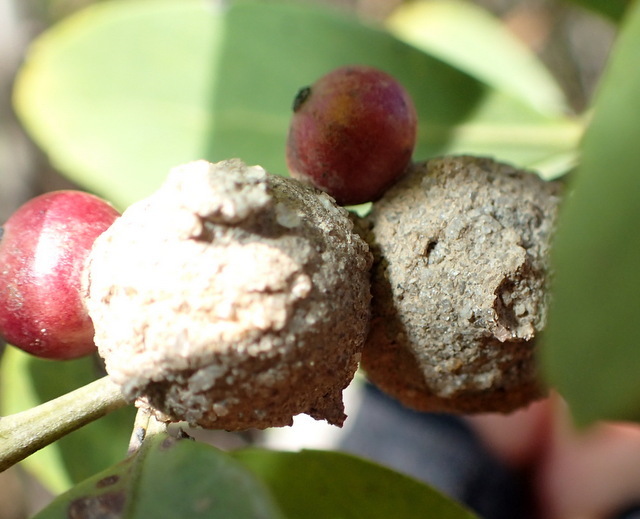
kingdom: Animalia
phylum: Arthropoda
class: Insecta
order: Hymenoptera
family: Eumenidae
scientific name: Eumenidae
